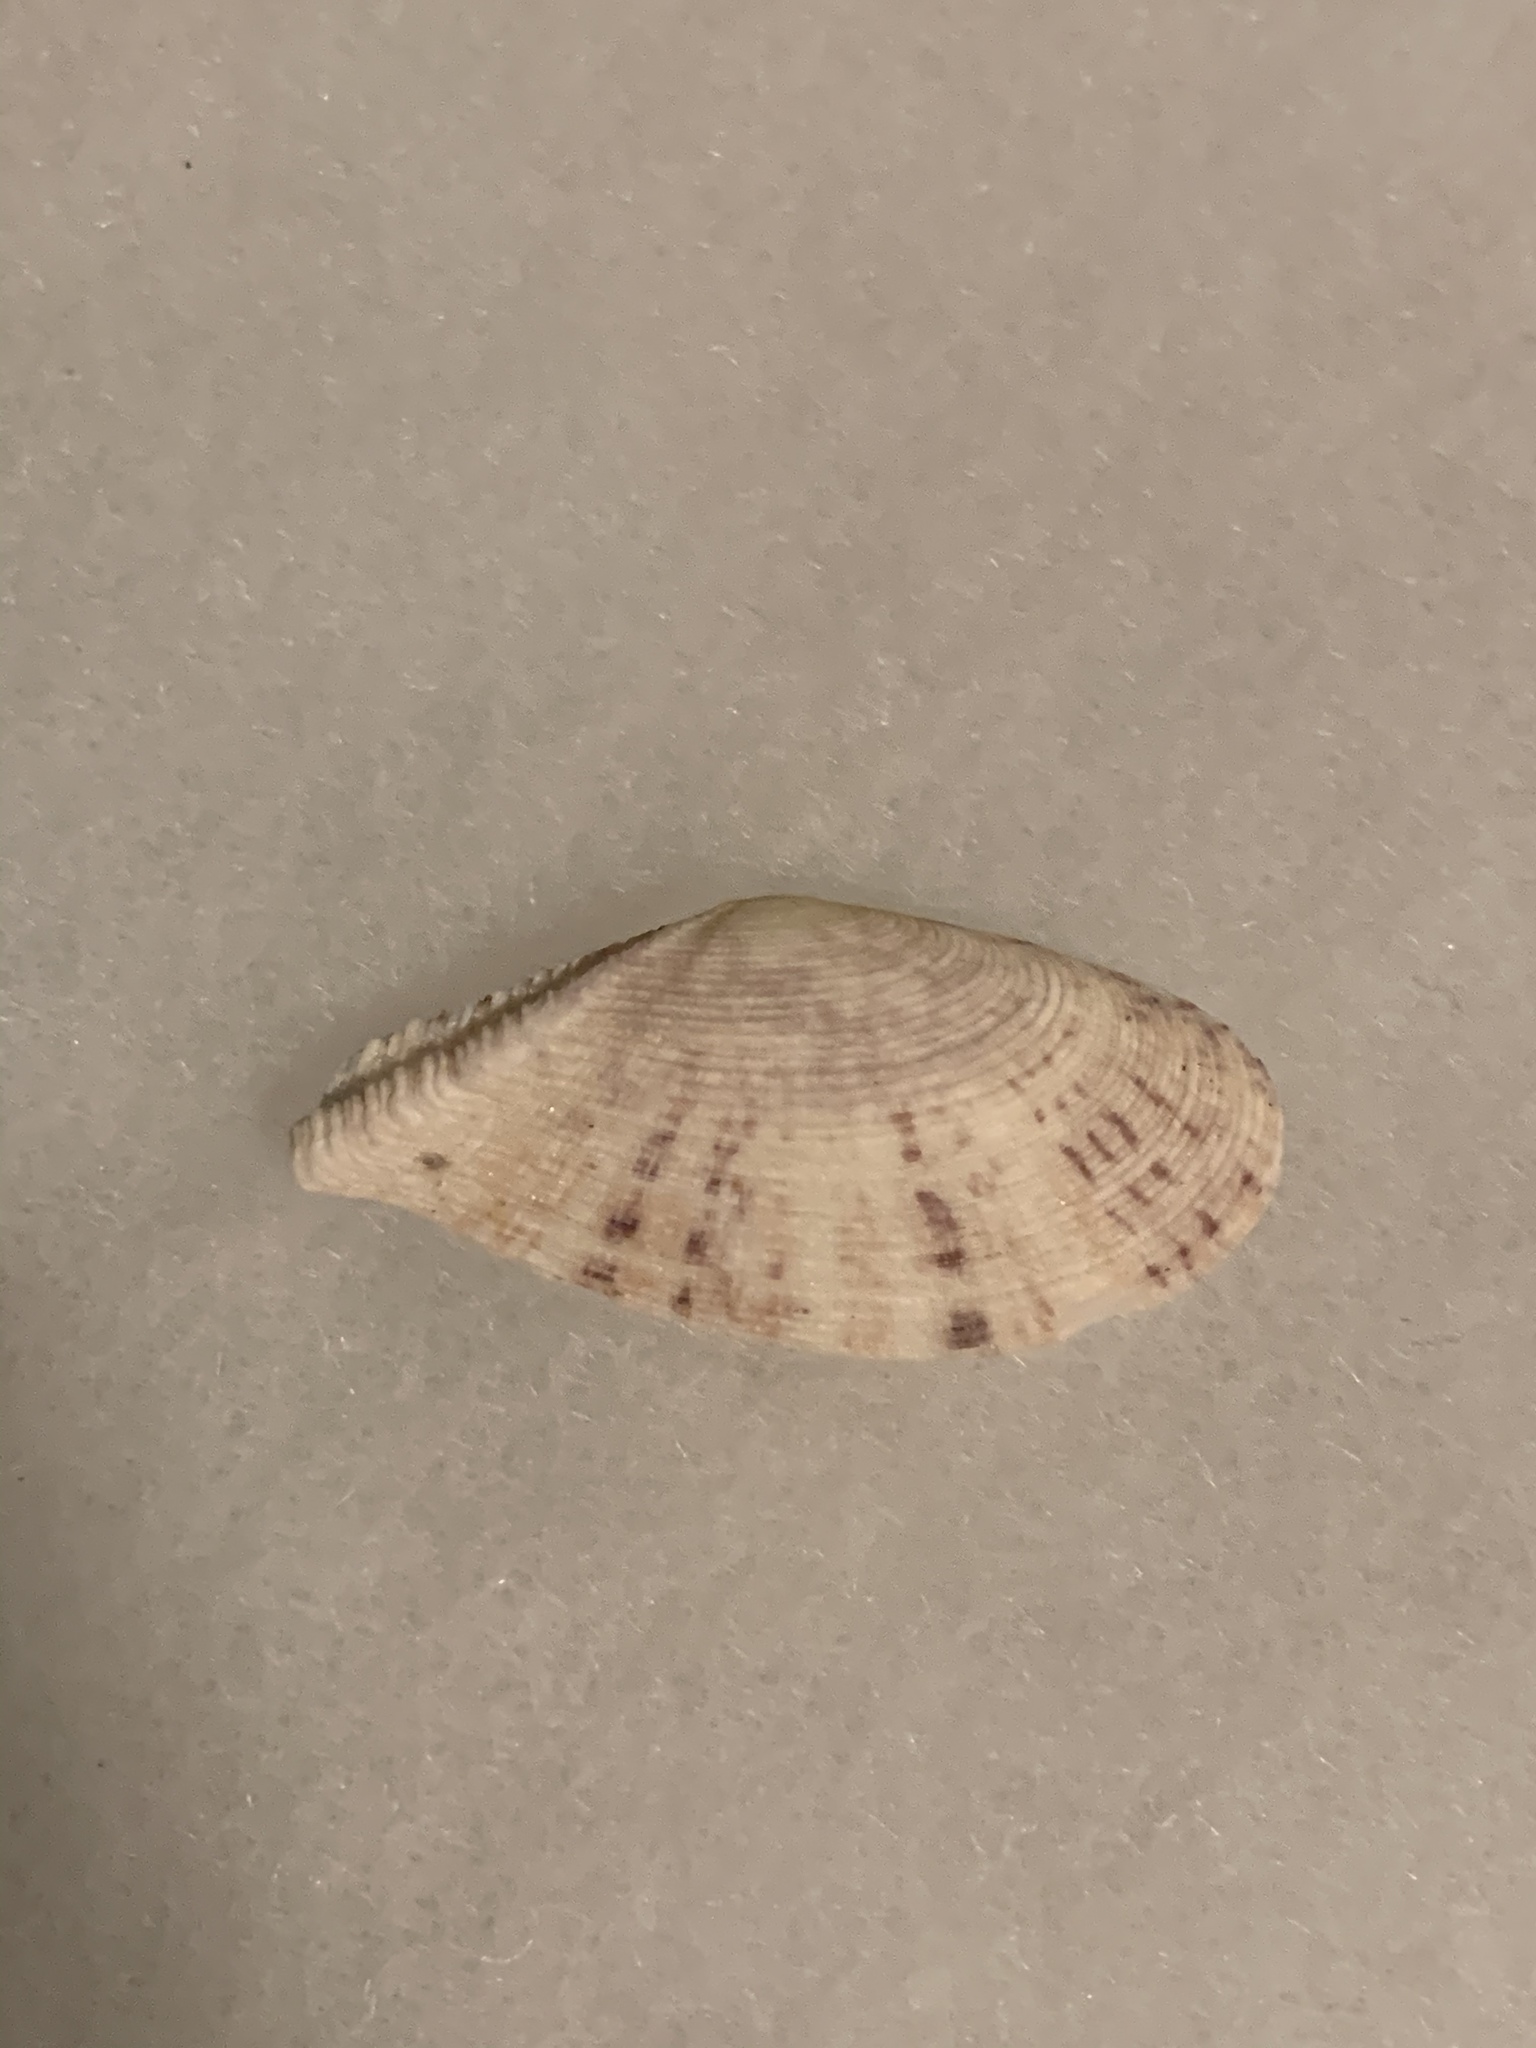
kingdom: Animalia
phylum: Mollusca
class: Bivalvia
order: Cardiida
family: Tellinidae
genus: Tellinella
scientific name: Tellinella listeri
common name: Speckled tellin
